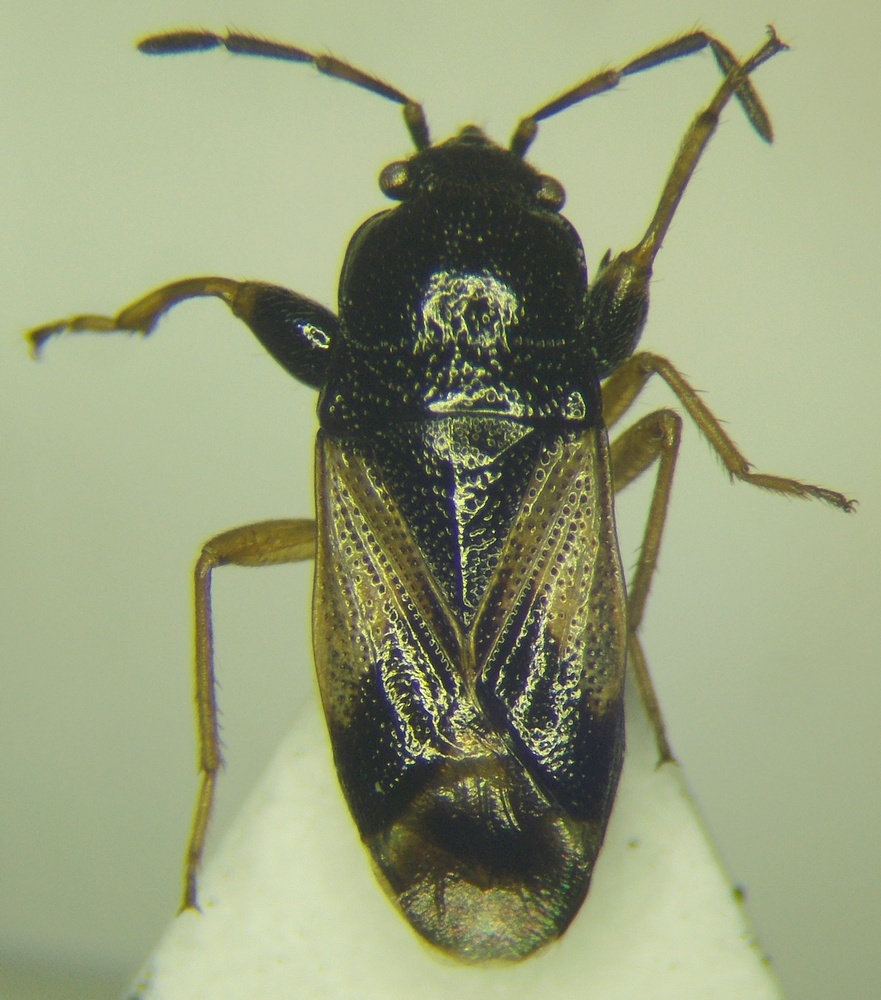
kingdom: Animalia
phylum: Arthropoda
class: Insecta
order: Hemiptera
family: Rhyparochromidae
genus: Megalonotus
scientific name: Megalonotus praetextatus
